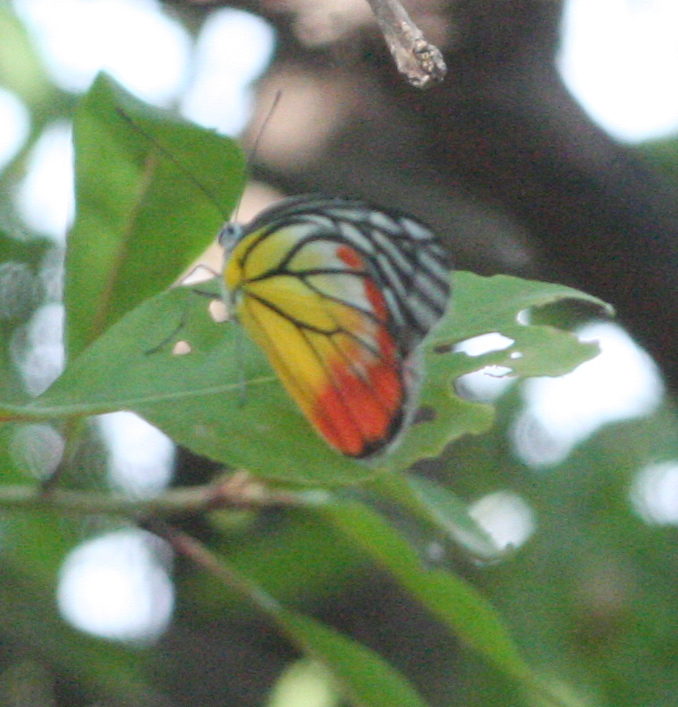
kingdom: Animalia
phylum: Arthropoda
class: Insecta
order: Lepidoptera
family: Pieridae
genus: Delias
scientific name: Delias hyparete
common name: Painted jezebel
